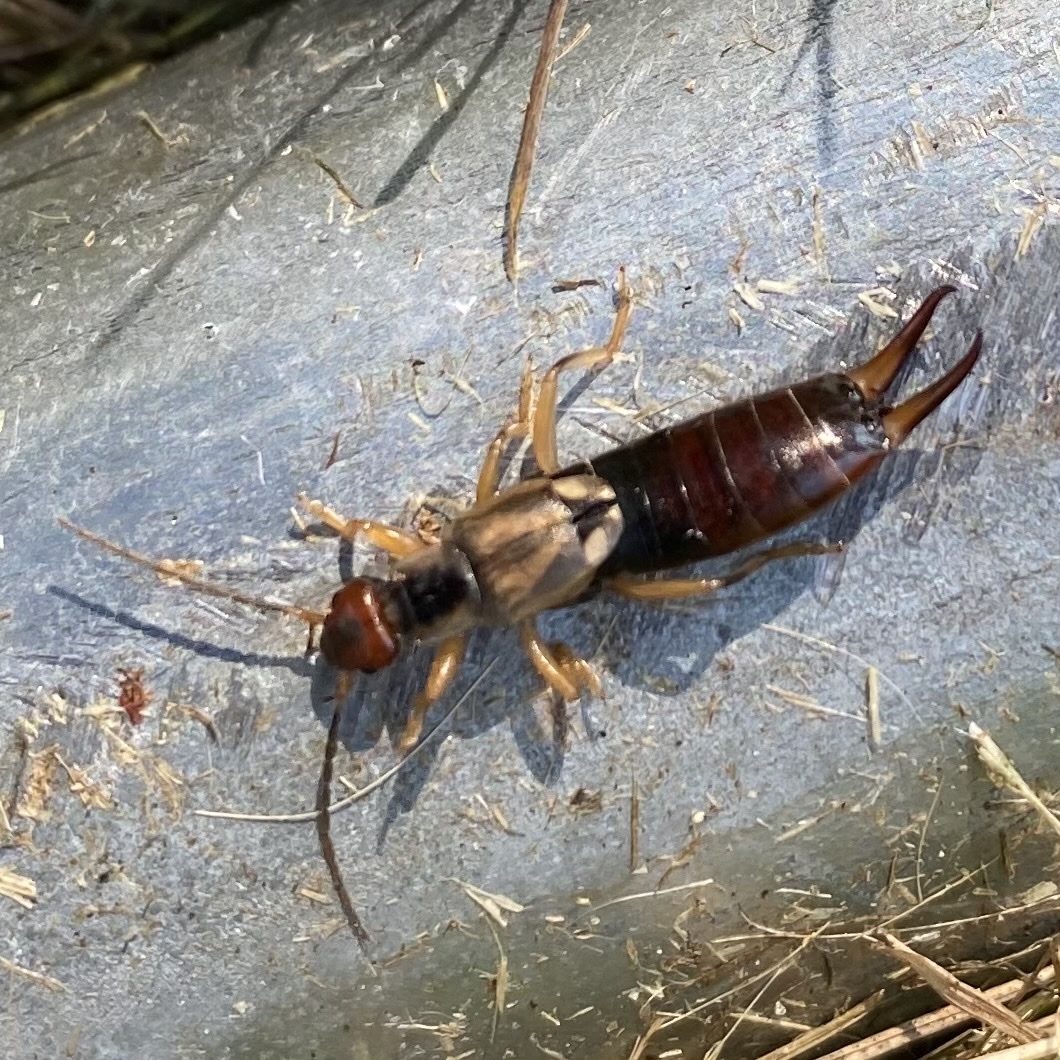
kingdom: Animalia
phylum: Arthropoda
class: Insecta
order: Dermaptera
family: Forficulidae
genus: Forficula
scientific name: Forficula
